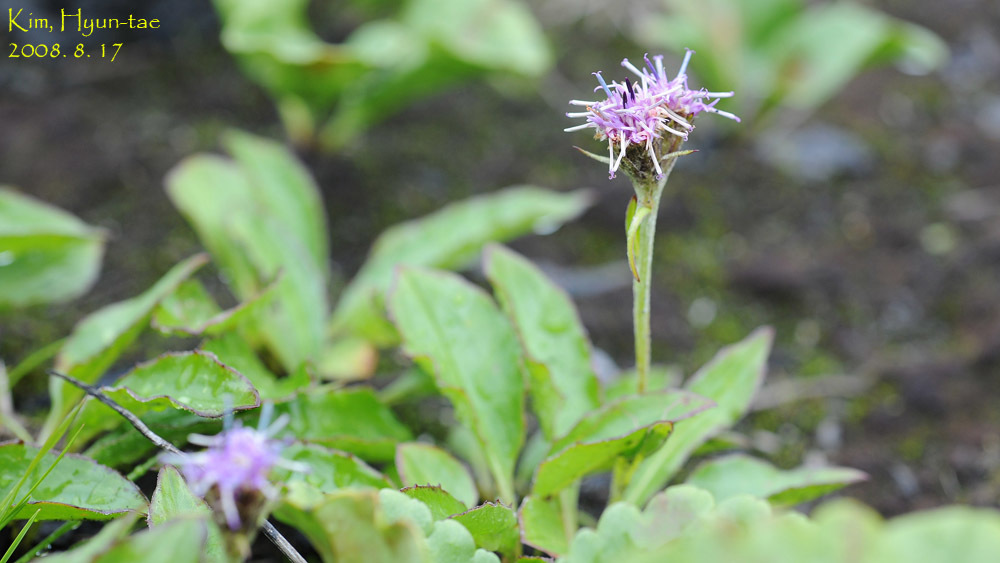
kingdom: Plantae
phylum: Tracheophyta
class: Magnoliopsida
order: Asterales
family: Asteraceae
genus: Saussurea
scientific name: Saussurea nuda
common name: Chaffless saw-wort
